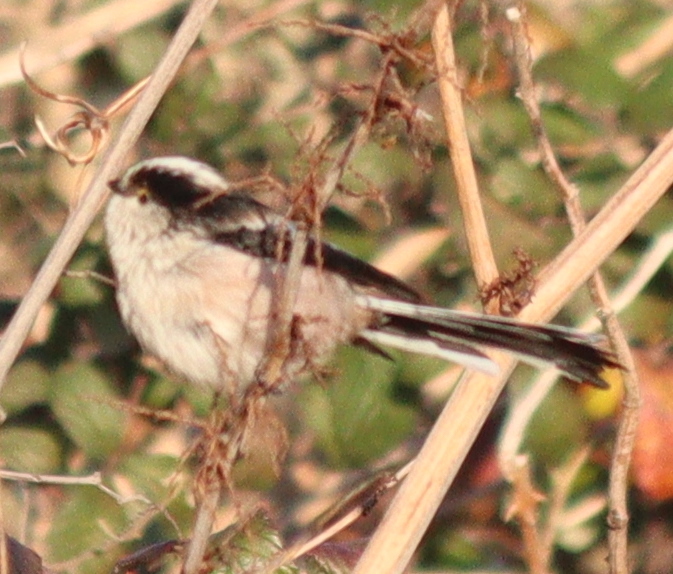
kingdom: Animalia
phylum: Chordata
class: Aves
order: Passeriformes
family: Aegithalidae
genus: Aegithalos
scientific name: Aegithalos caudatus
